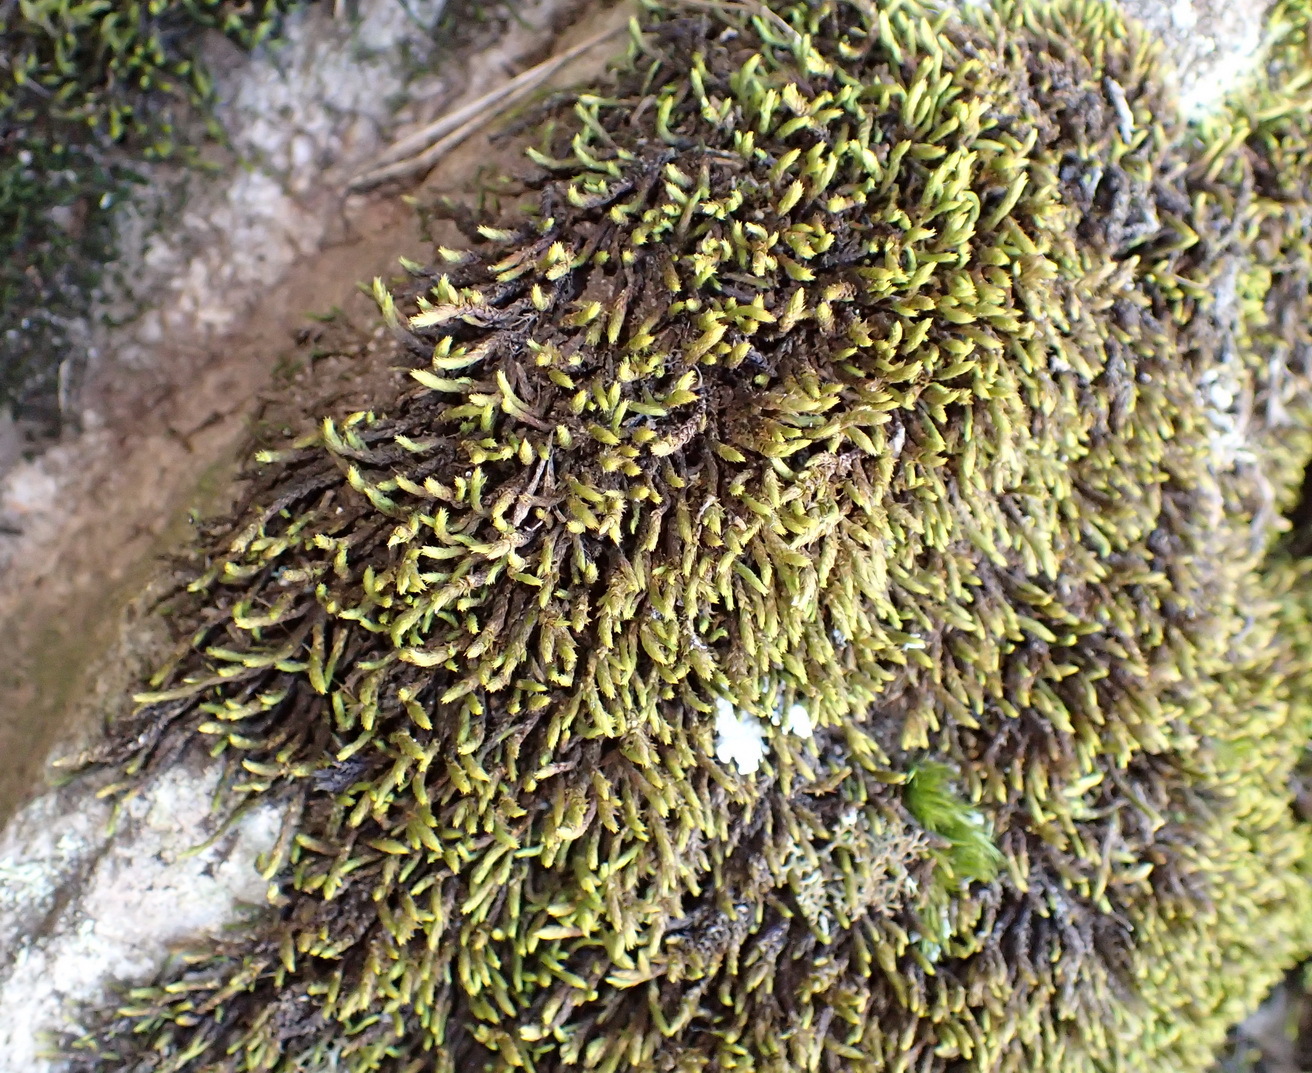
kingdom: Plantae
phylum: Bryophyta
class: Bryopsida
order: Hedwigiales
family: Hedwigiaceae
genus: Braunia
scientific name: Braunia secunda
